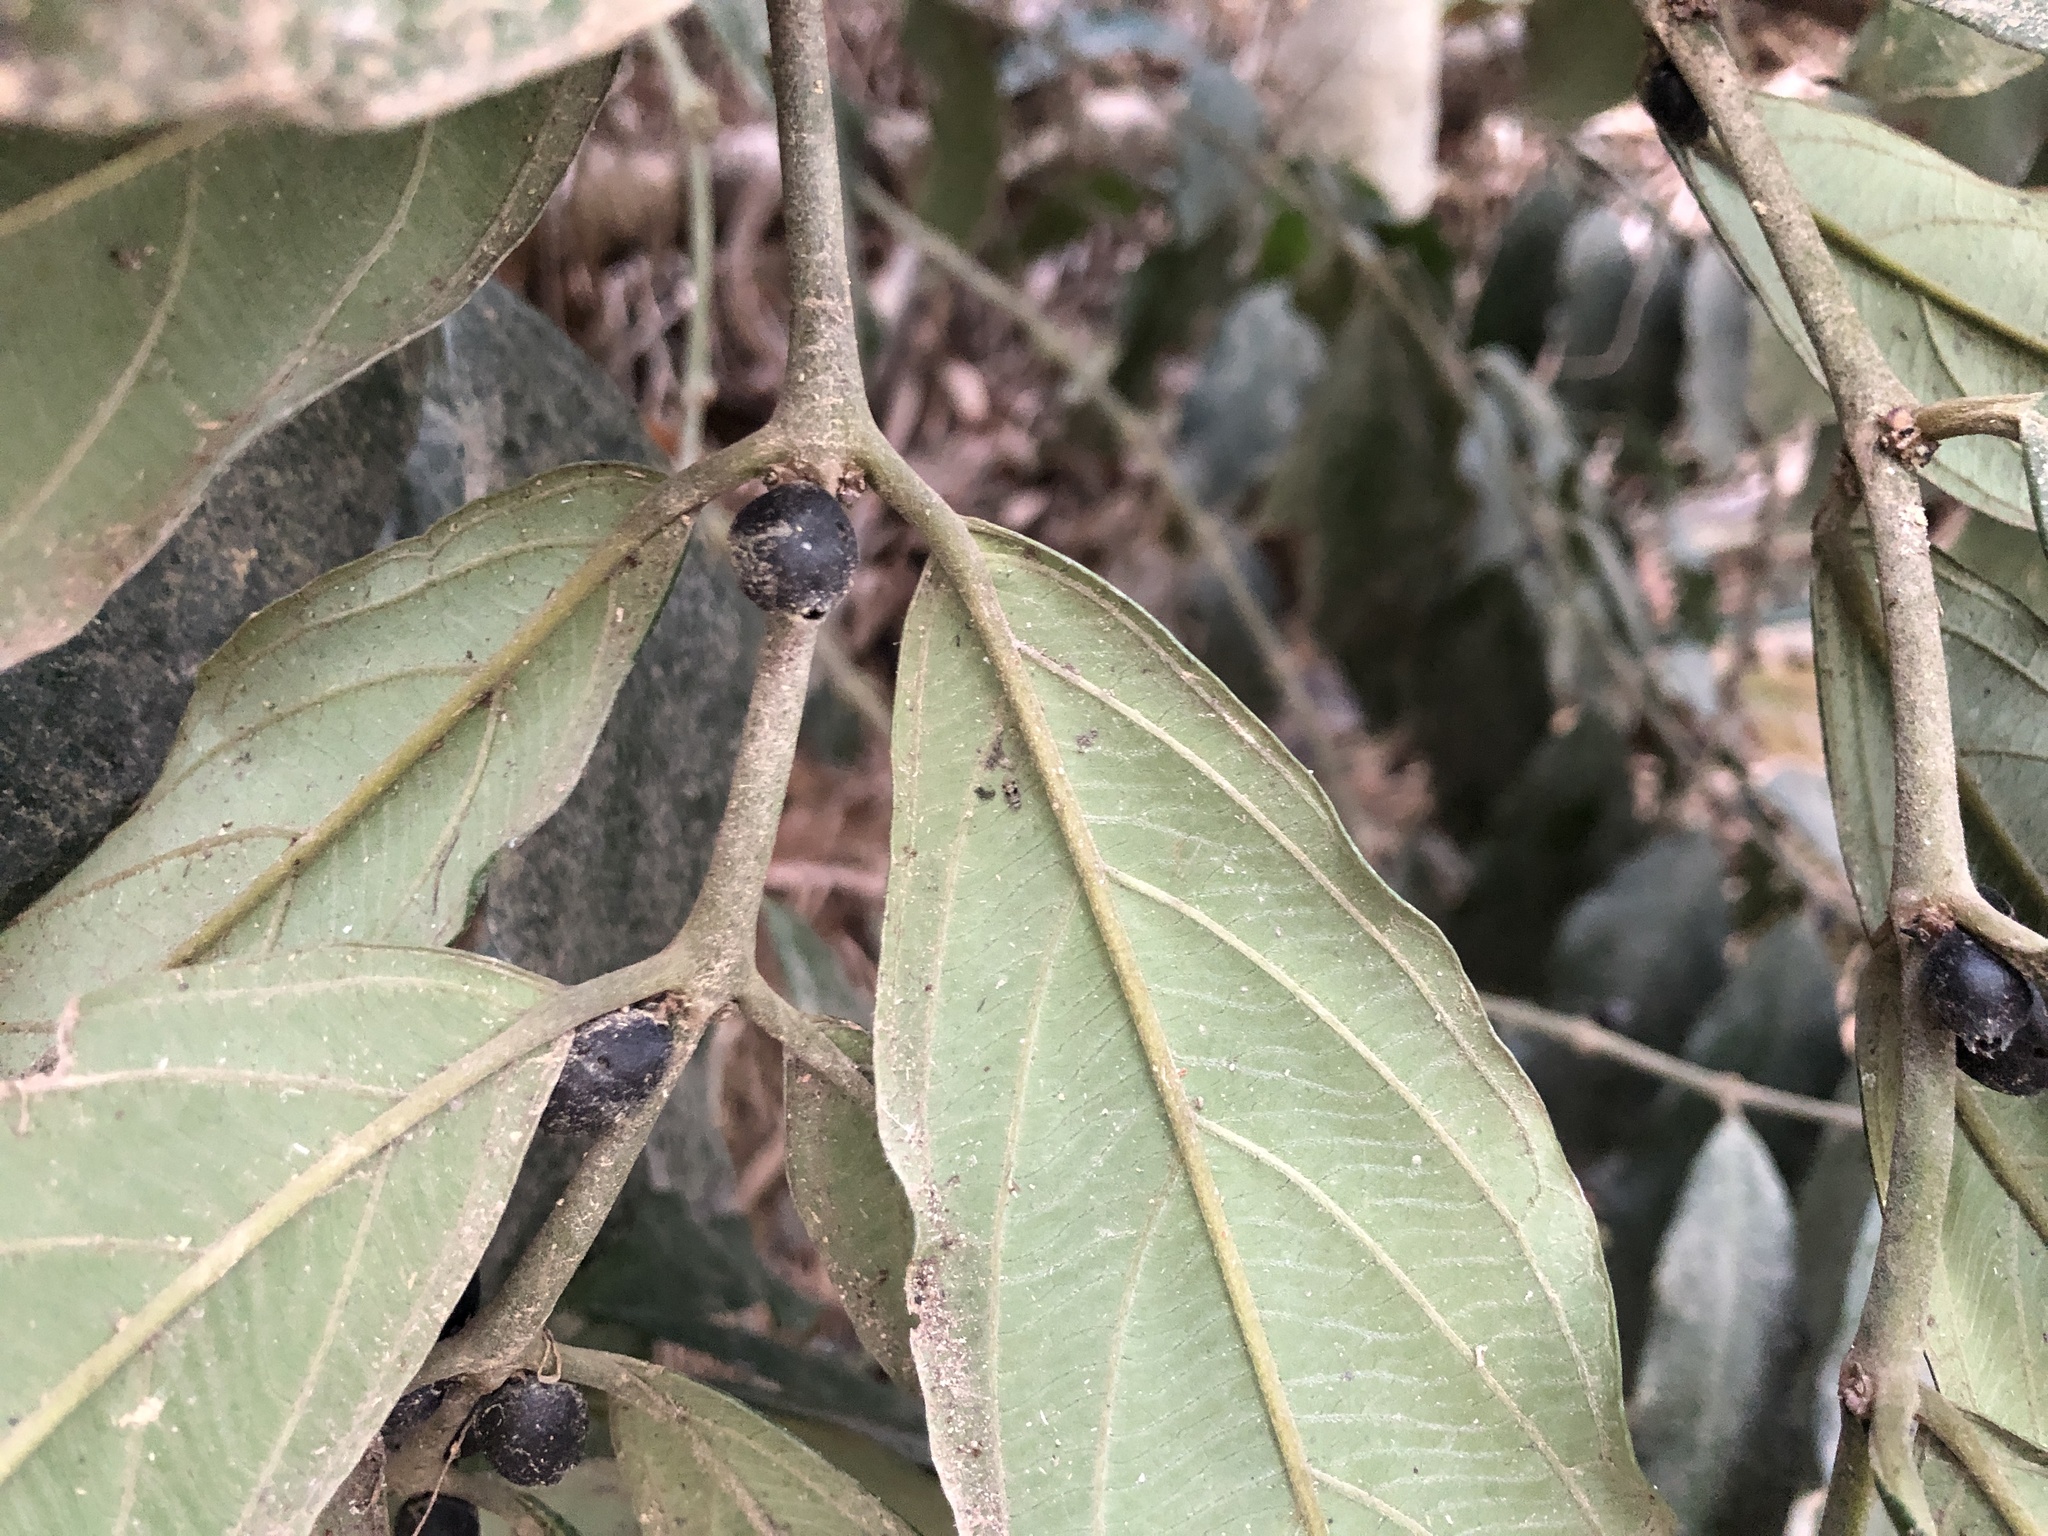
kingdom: Plantae
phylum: Tracheophyta
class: Magnoliopsida
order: Gentianales
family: Rubiaceae
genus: Lasianthus
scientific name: Lasianthus verticillatus
